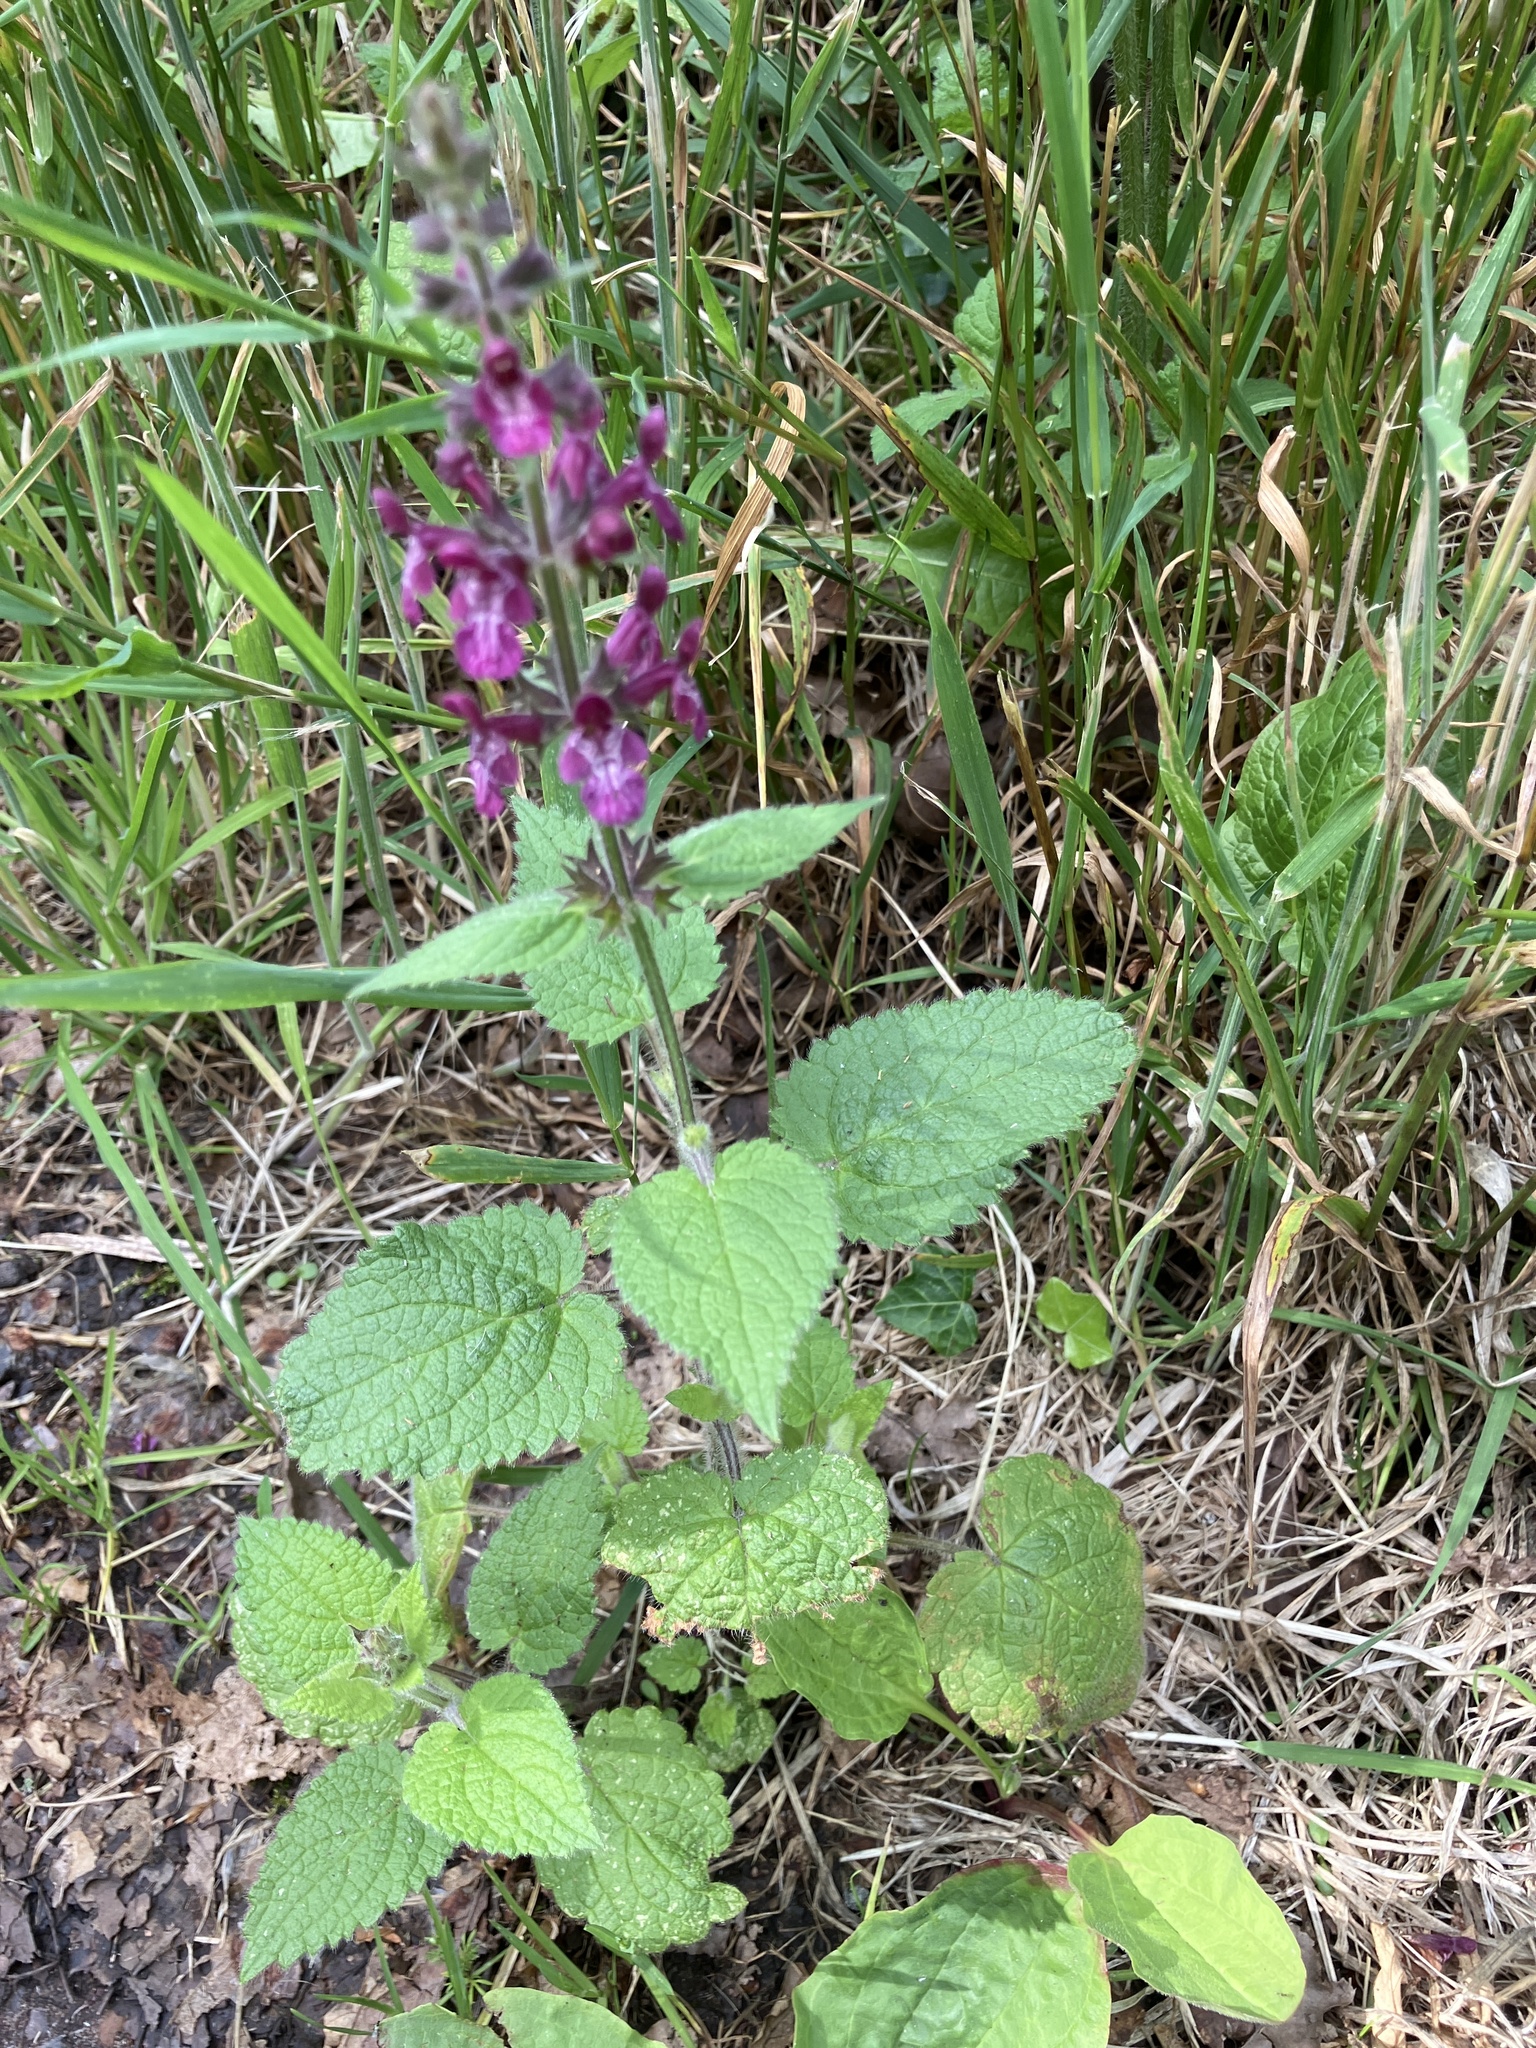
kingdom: Plantae
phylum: Tracheophyta
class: Magnoliopsida
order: Lamiales
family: Lamiaceae
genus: Stachys
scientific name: Stachys sylvatica
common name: Hedge woundwort
